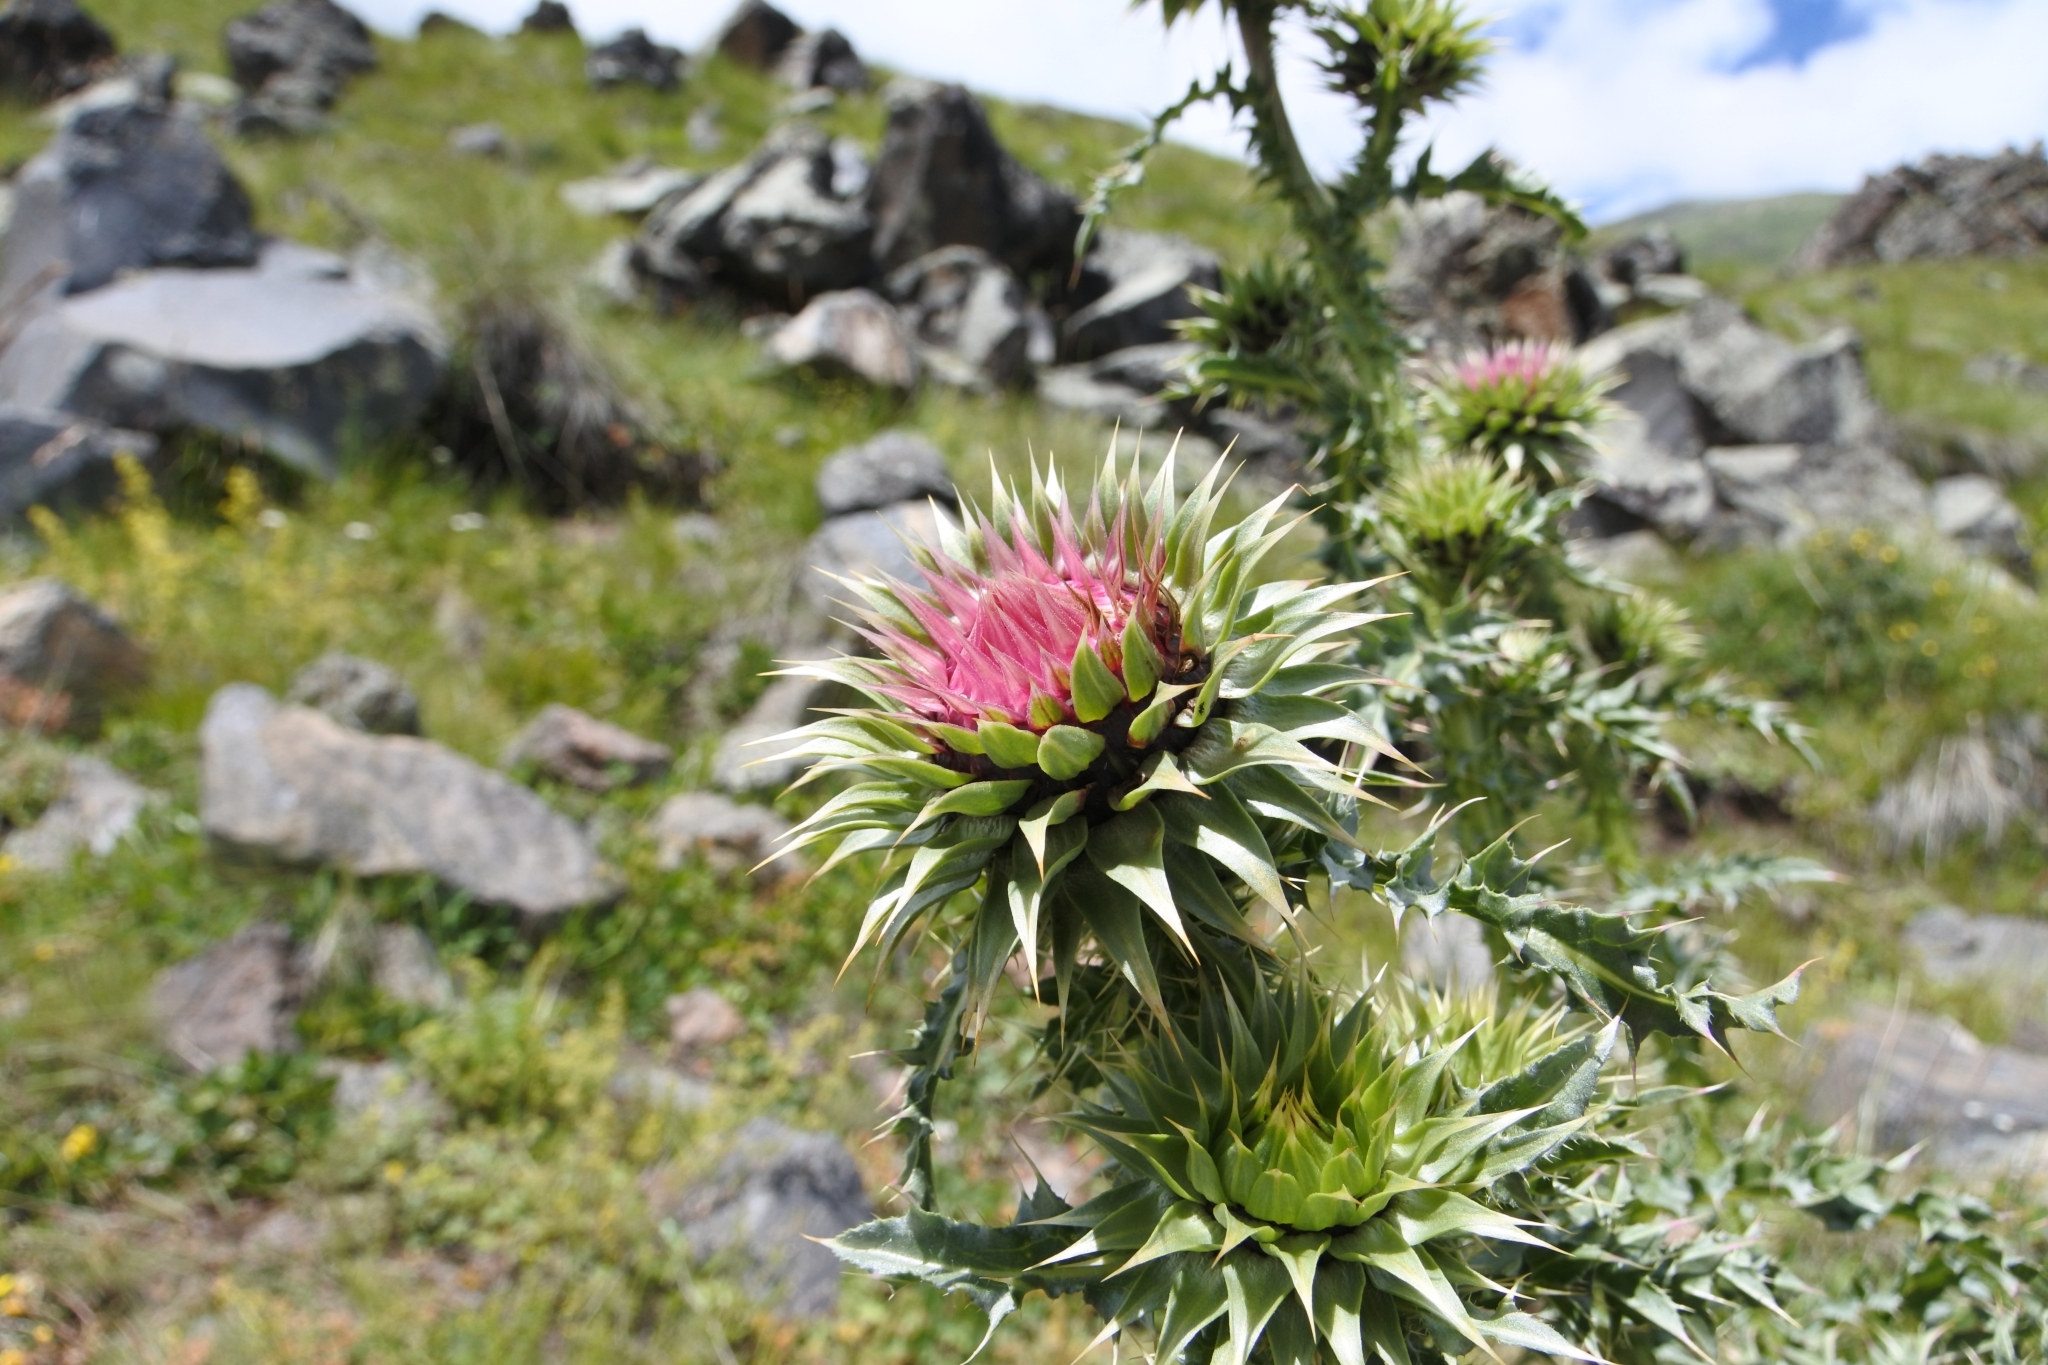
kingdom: Plantae
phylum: Tracheophyta
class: Magnoliopsida
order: Asterales
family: Asteraceae
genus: Carduus
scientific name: Carduus nutans
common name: Musk thistle
